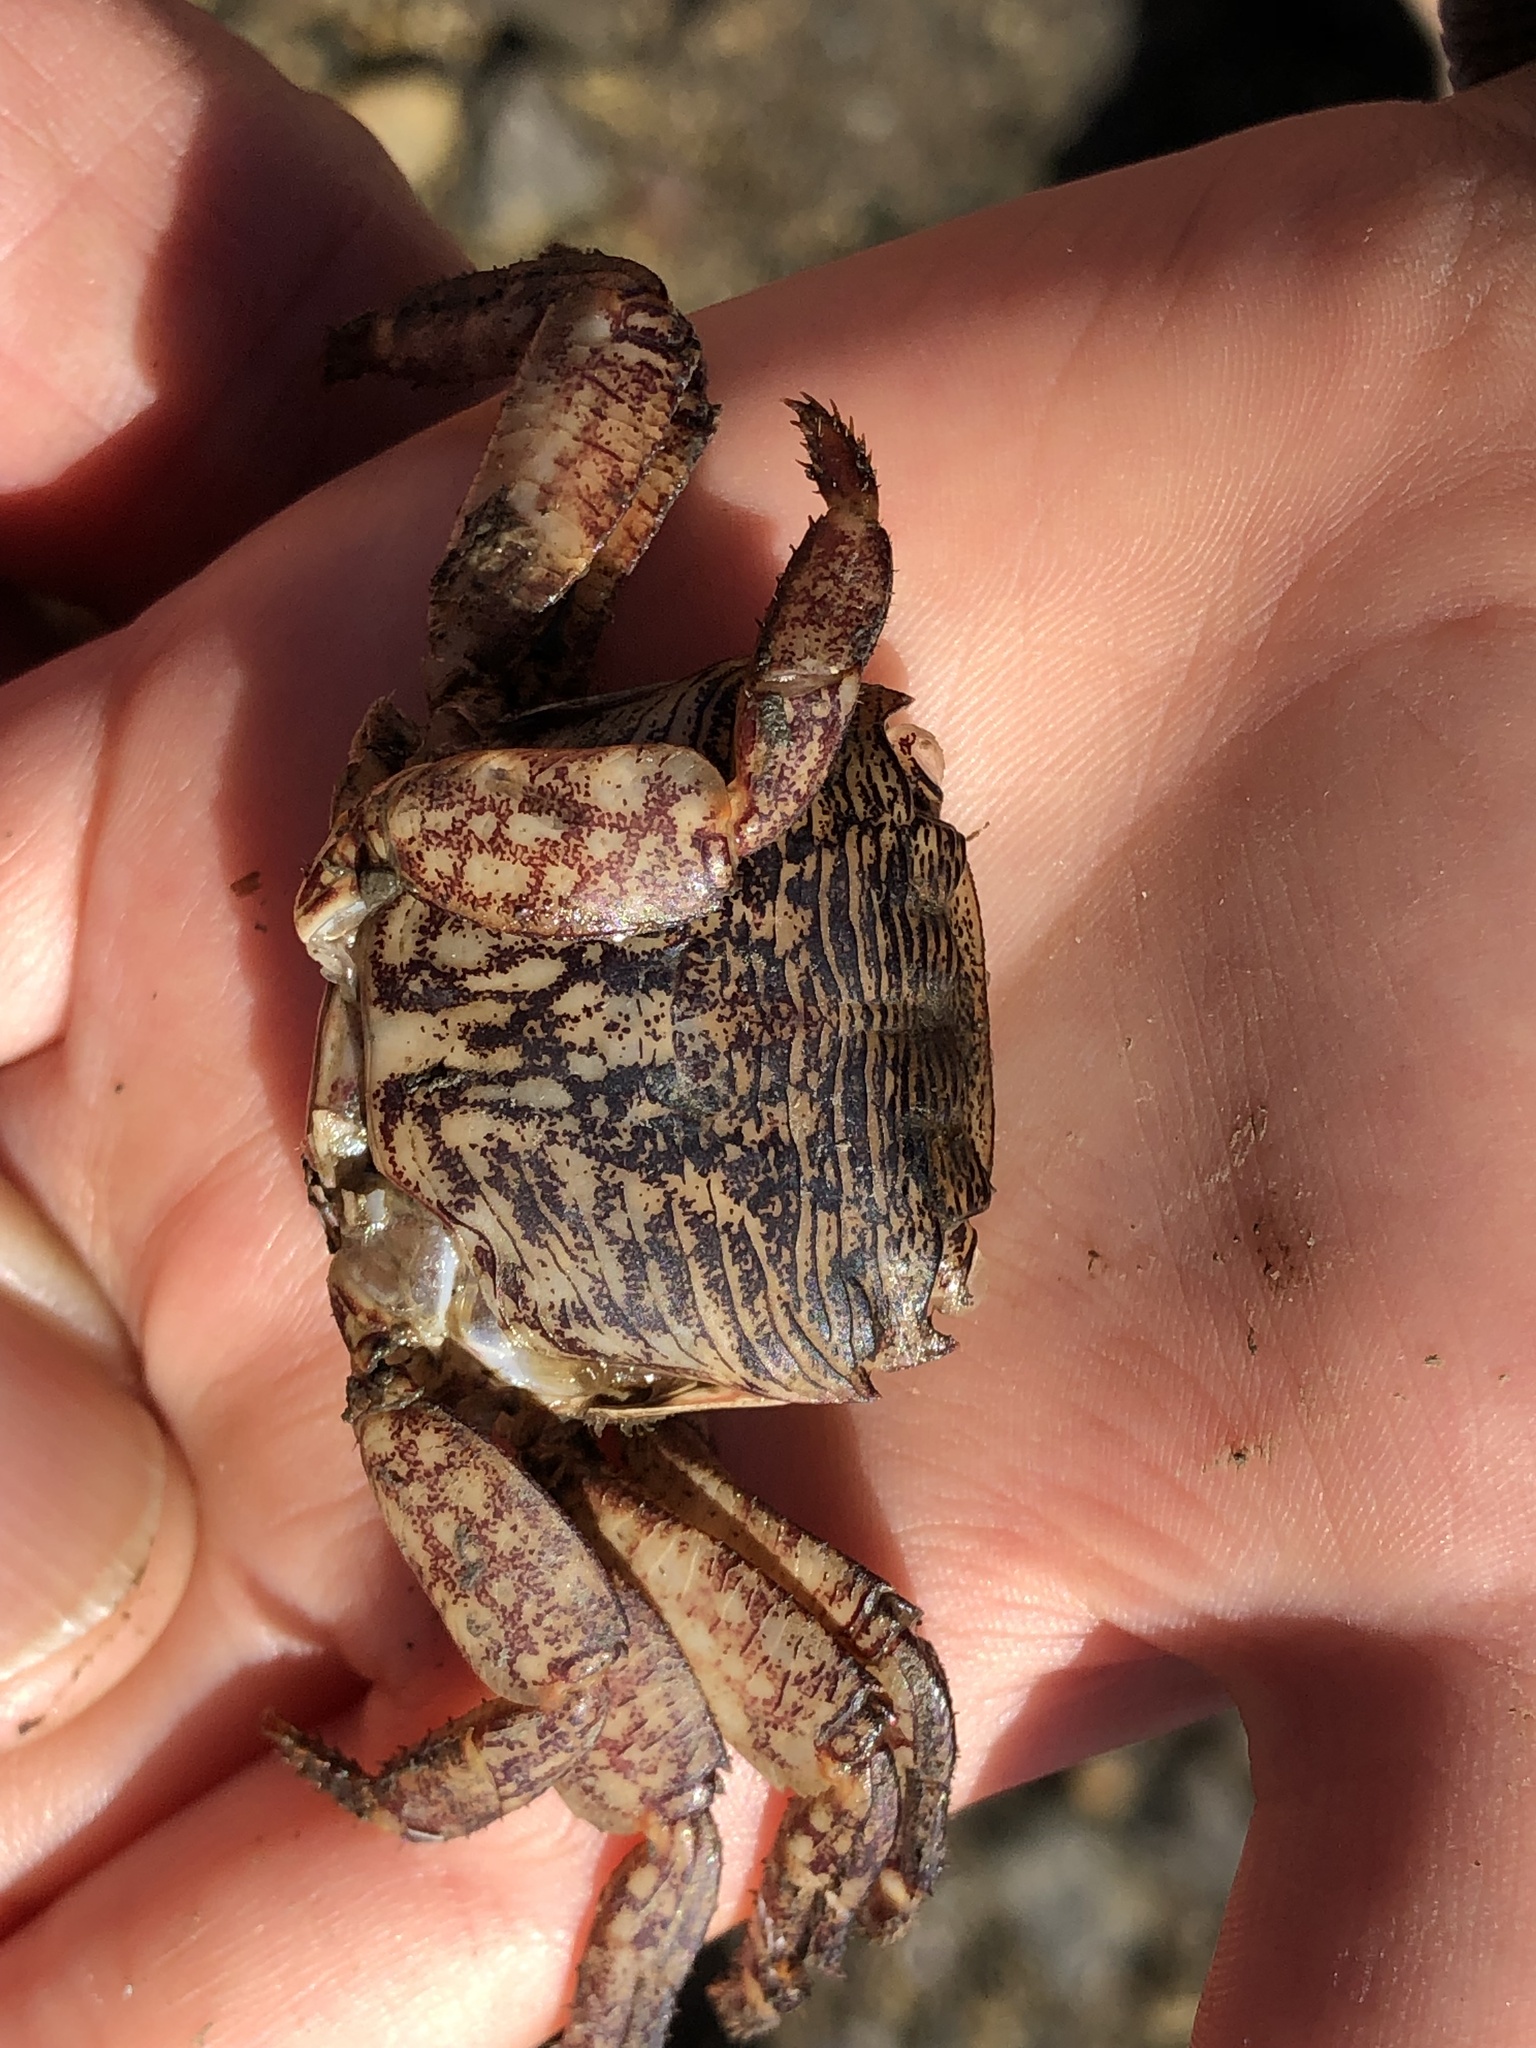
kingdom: Animalia
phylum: Arthropoda
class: Malacostraca
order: Decapoda
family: Grapsidae
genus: Pachygrapsus
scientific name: Pachygrapsus crassipes
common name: Striped shore crab
